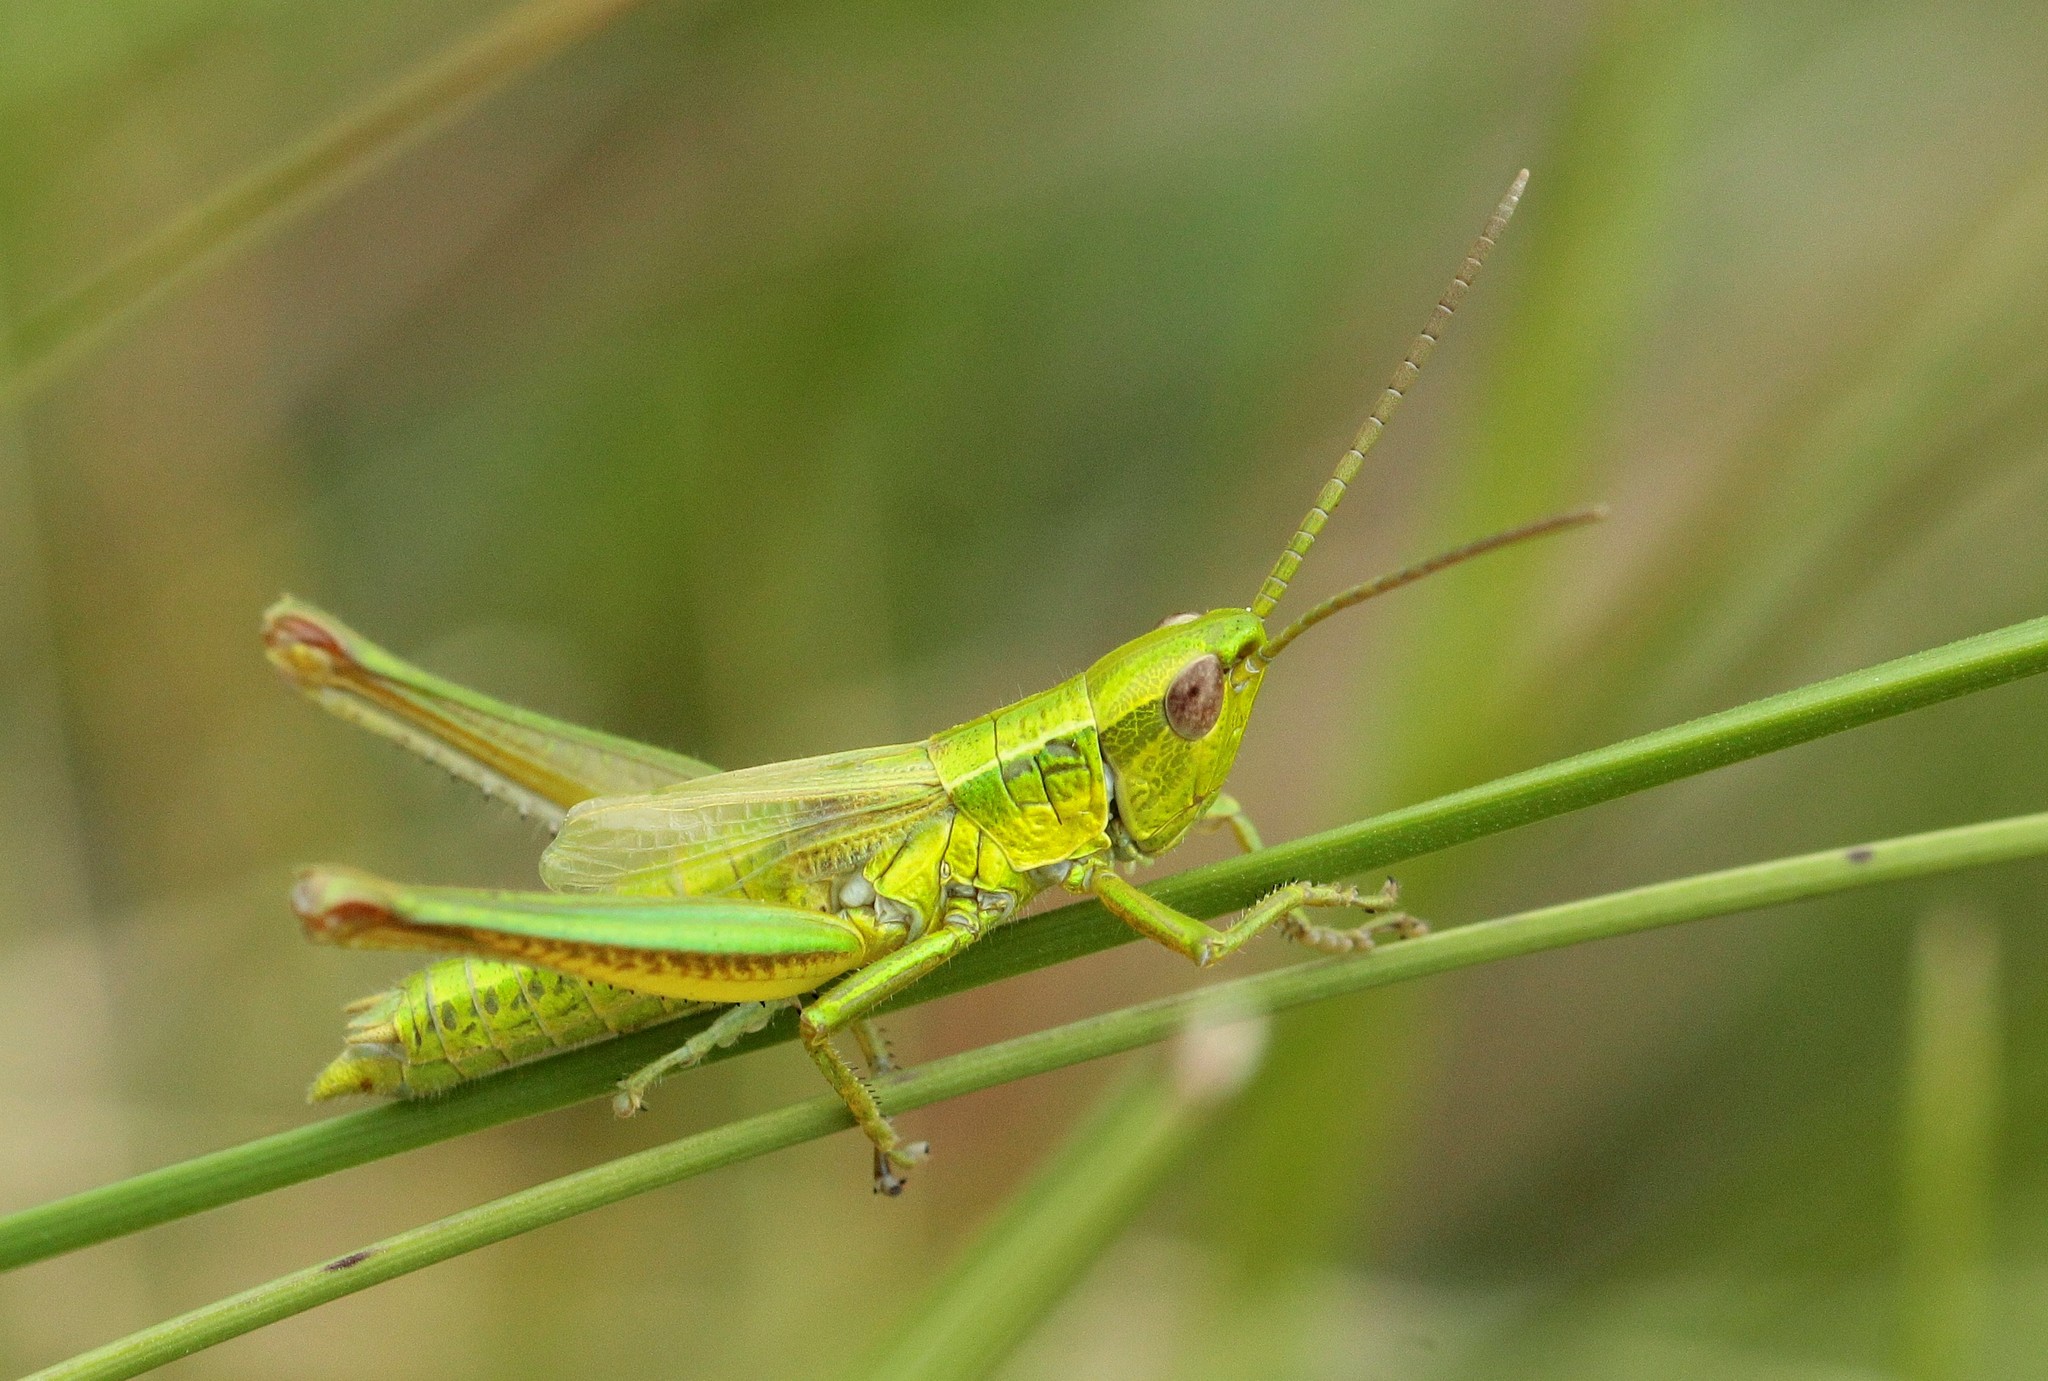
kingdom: Animalia
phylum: Arthropoda
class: Insecta
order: Orthoptera
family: Acrididae
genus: Euthystira
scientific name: Euthystira brachyptera
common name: Small gold grasshopper
